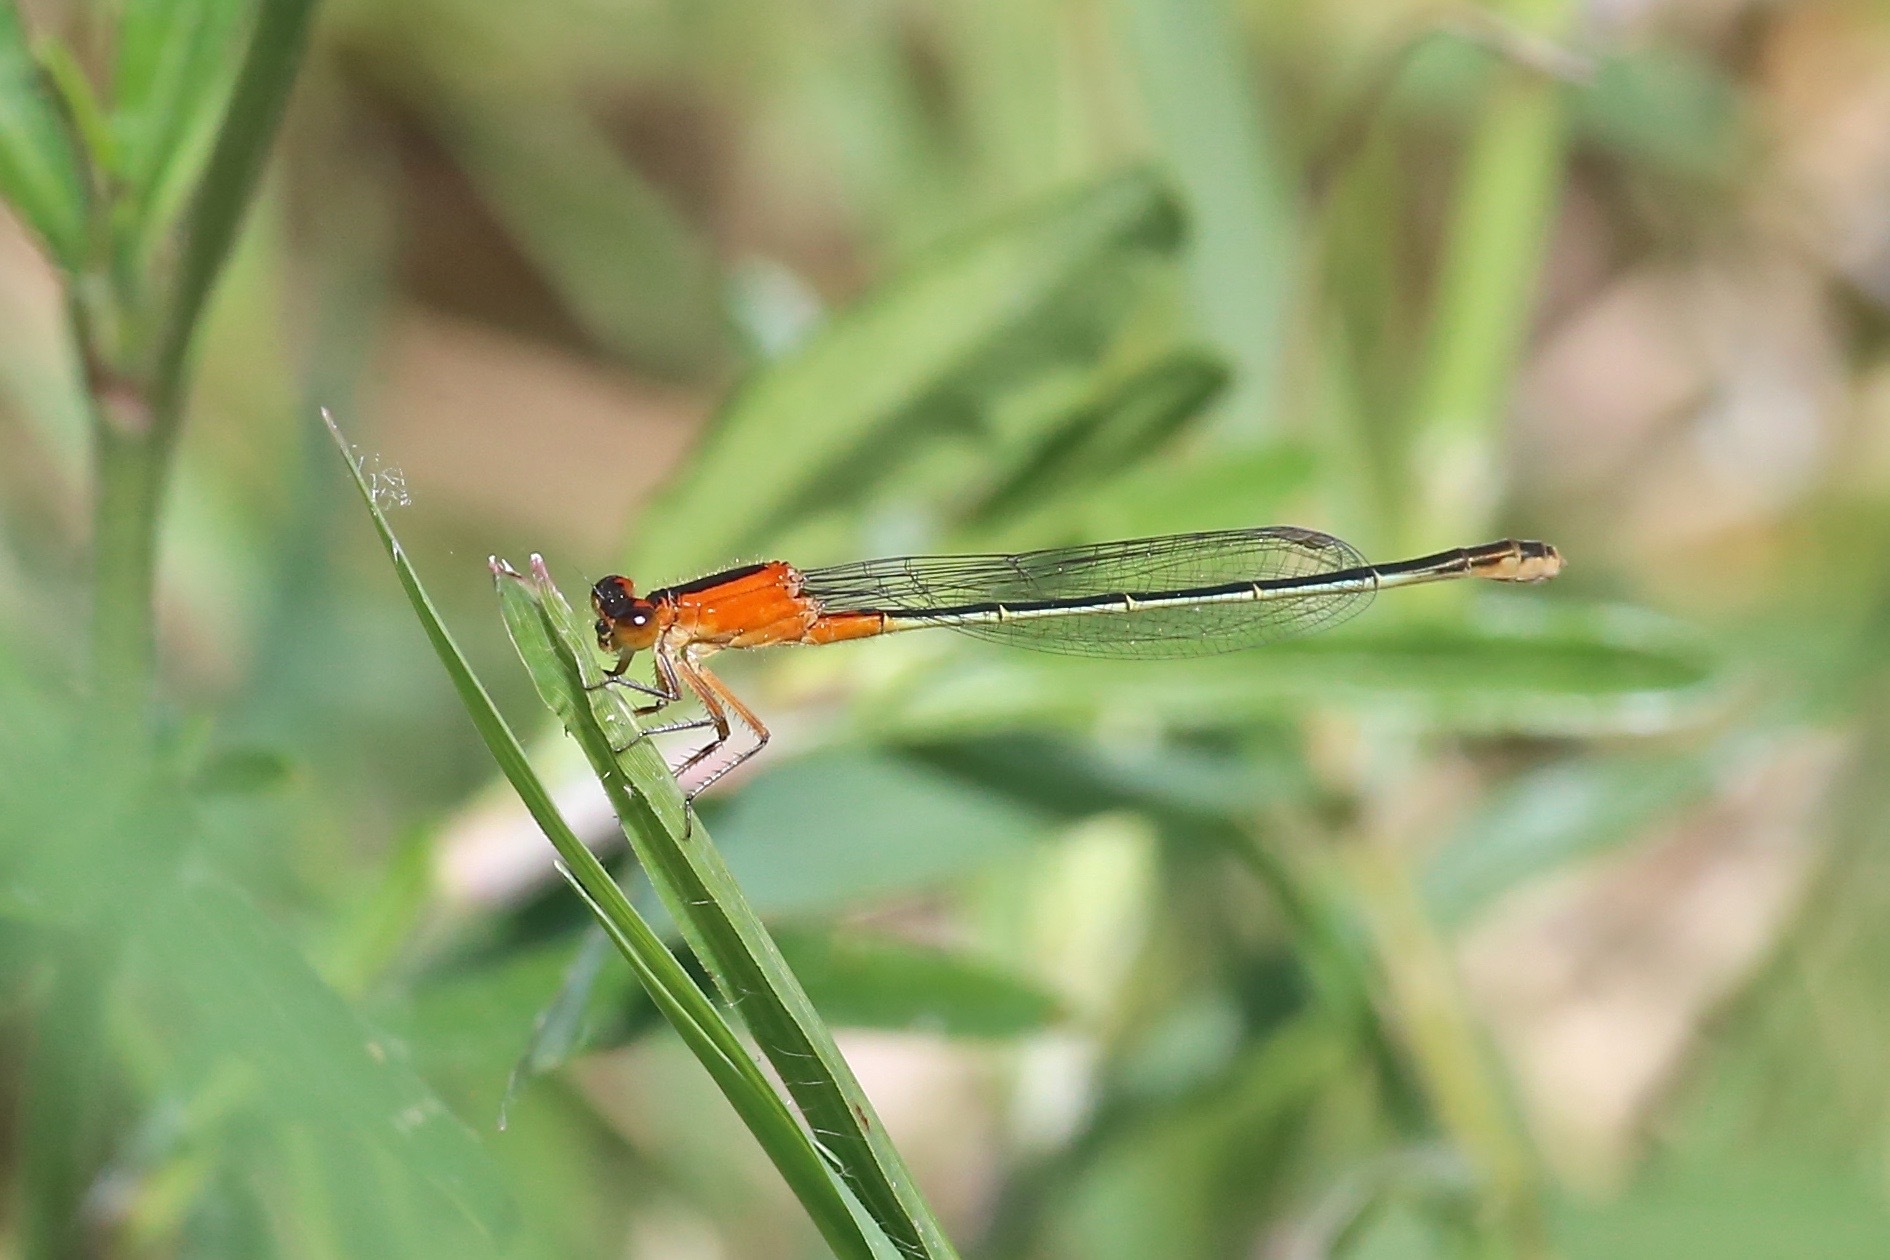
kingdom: Animalia
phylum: Arthropoda
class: Insecta
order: Odonata
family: Coenagrionidae
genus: Ischnura
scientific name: Ischnura ramburii
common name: Rambur's forktail
